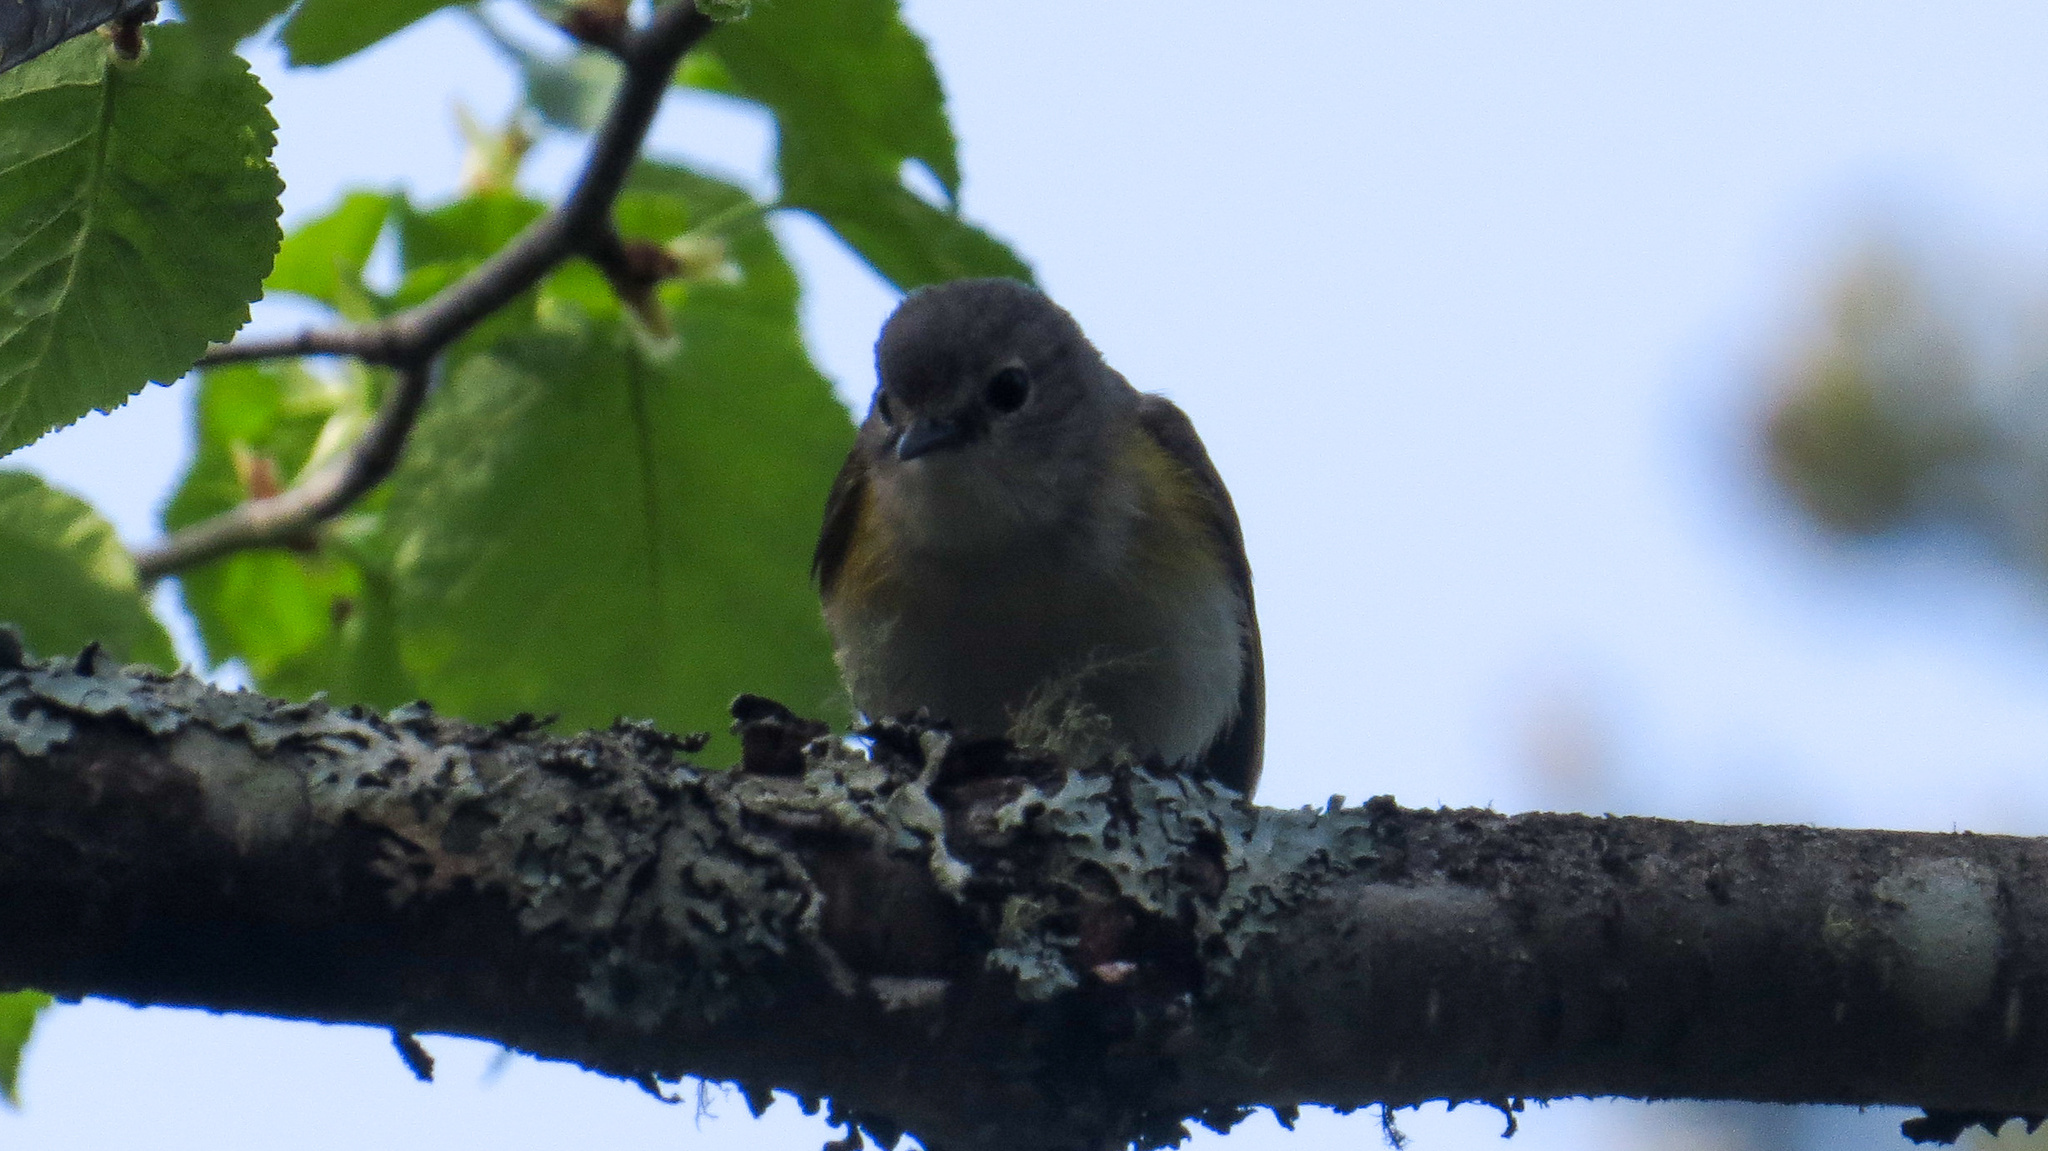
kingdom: Animalia
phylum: Chordata
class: Aves
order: Passeriformes
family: Parulidae
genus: Setophaga
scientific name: Setophaga ruticilla
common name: American redstart
